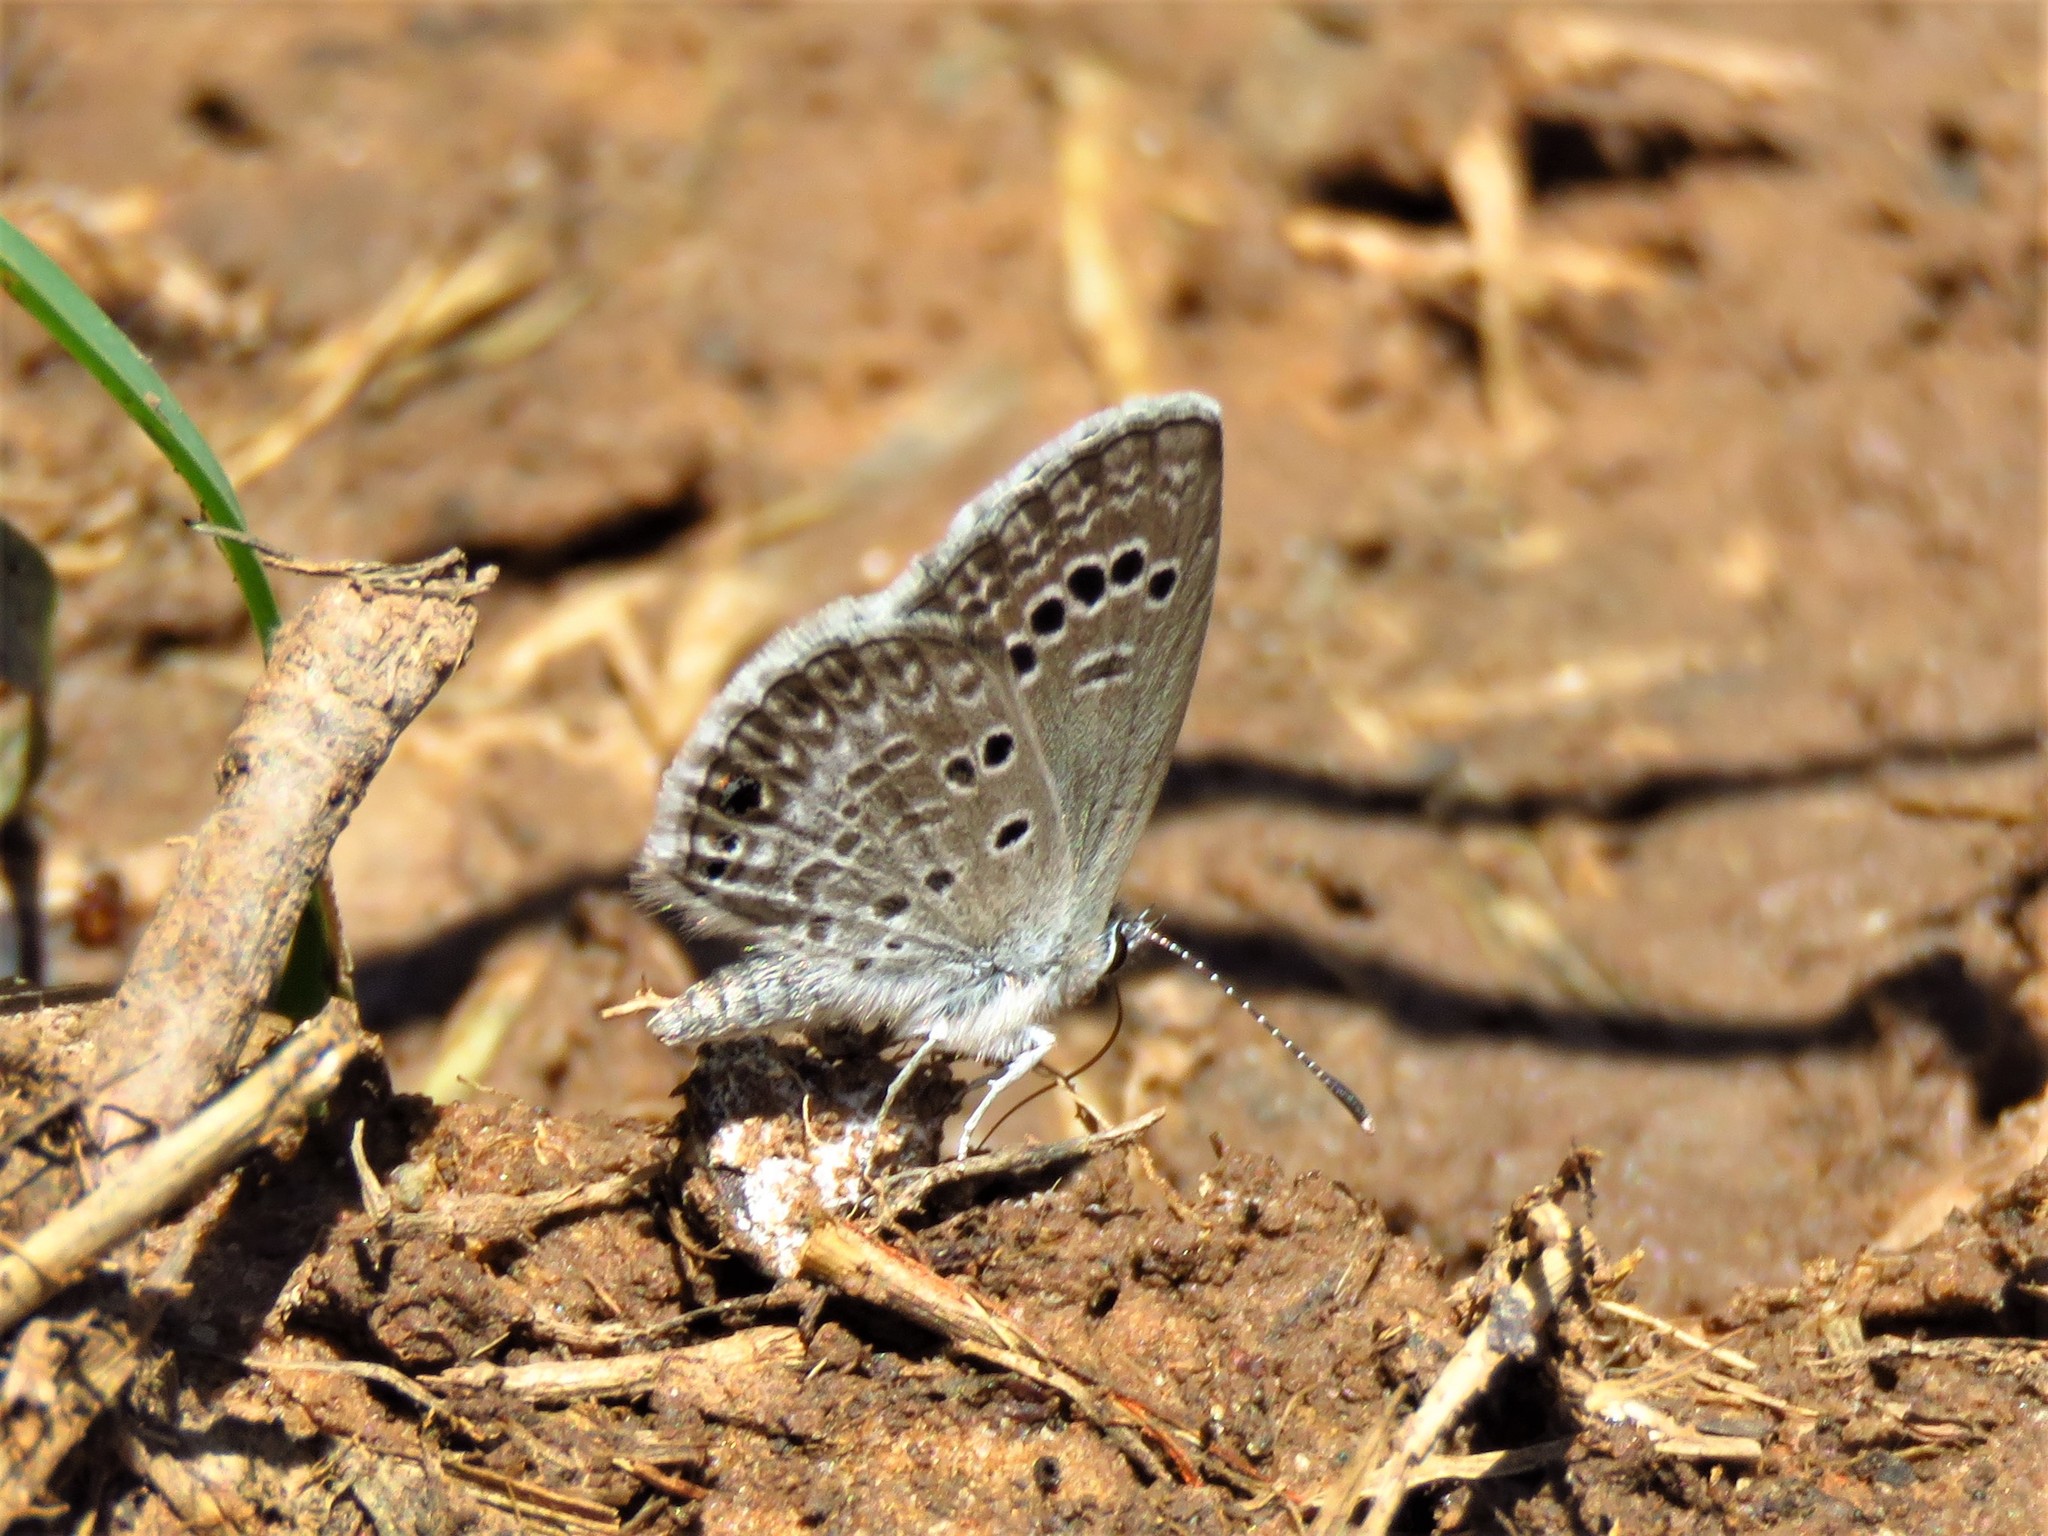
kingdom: Animalia
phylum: Arthropoda
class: Insecta
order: Lepidoptera
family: Lycaenidae
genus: Echinargus
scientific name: Echinargus isola
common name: Reakirt's blue
